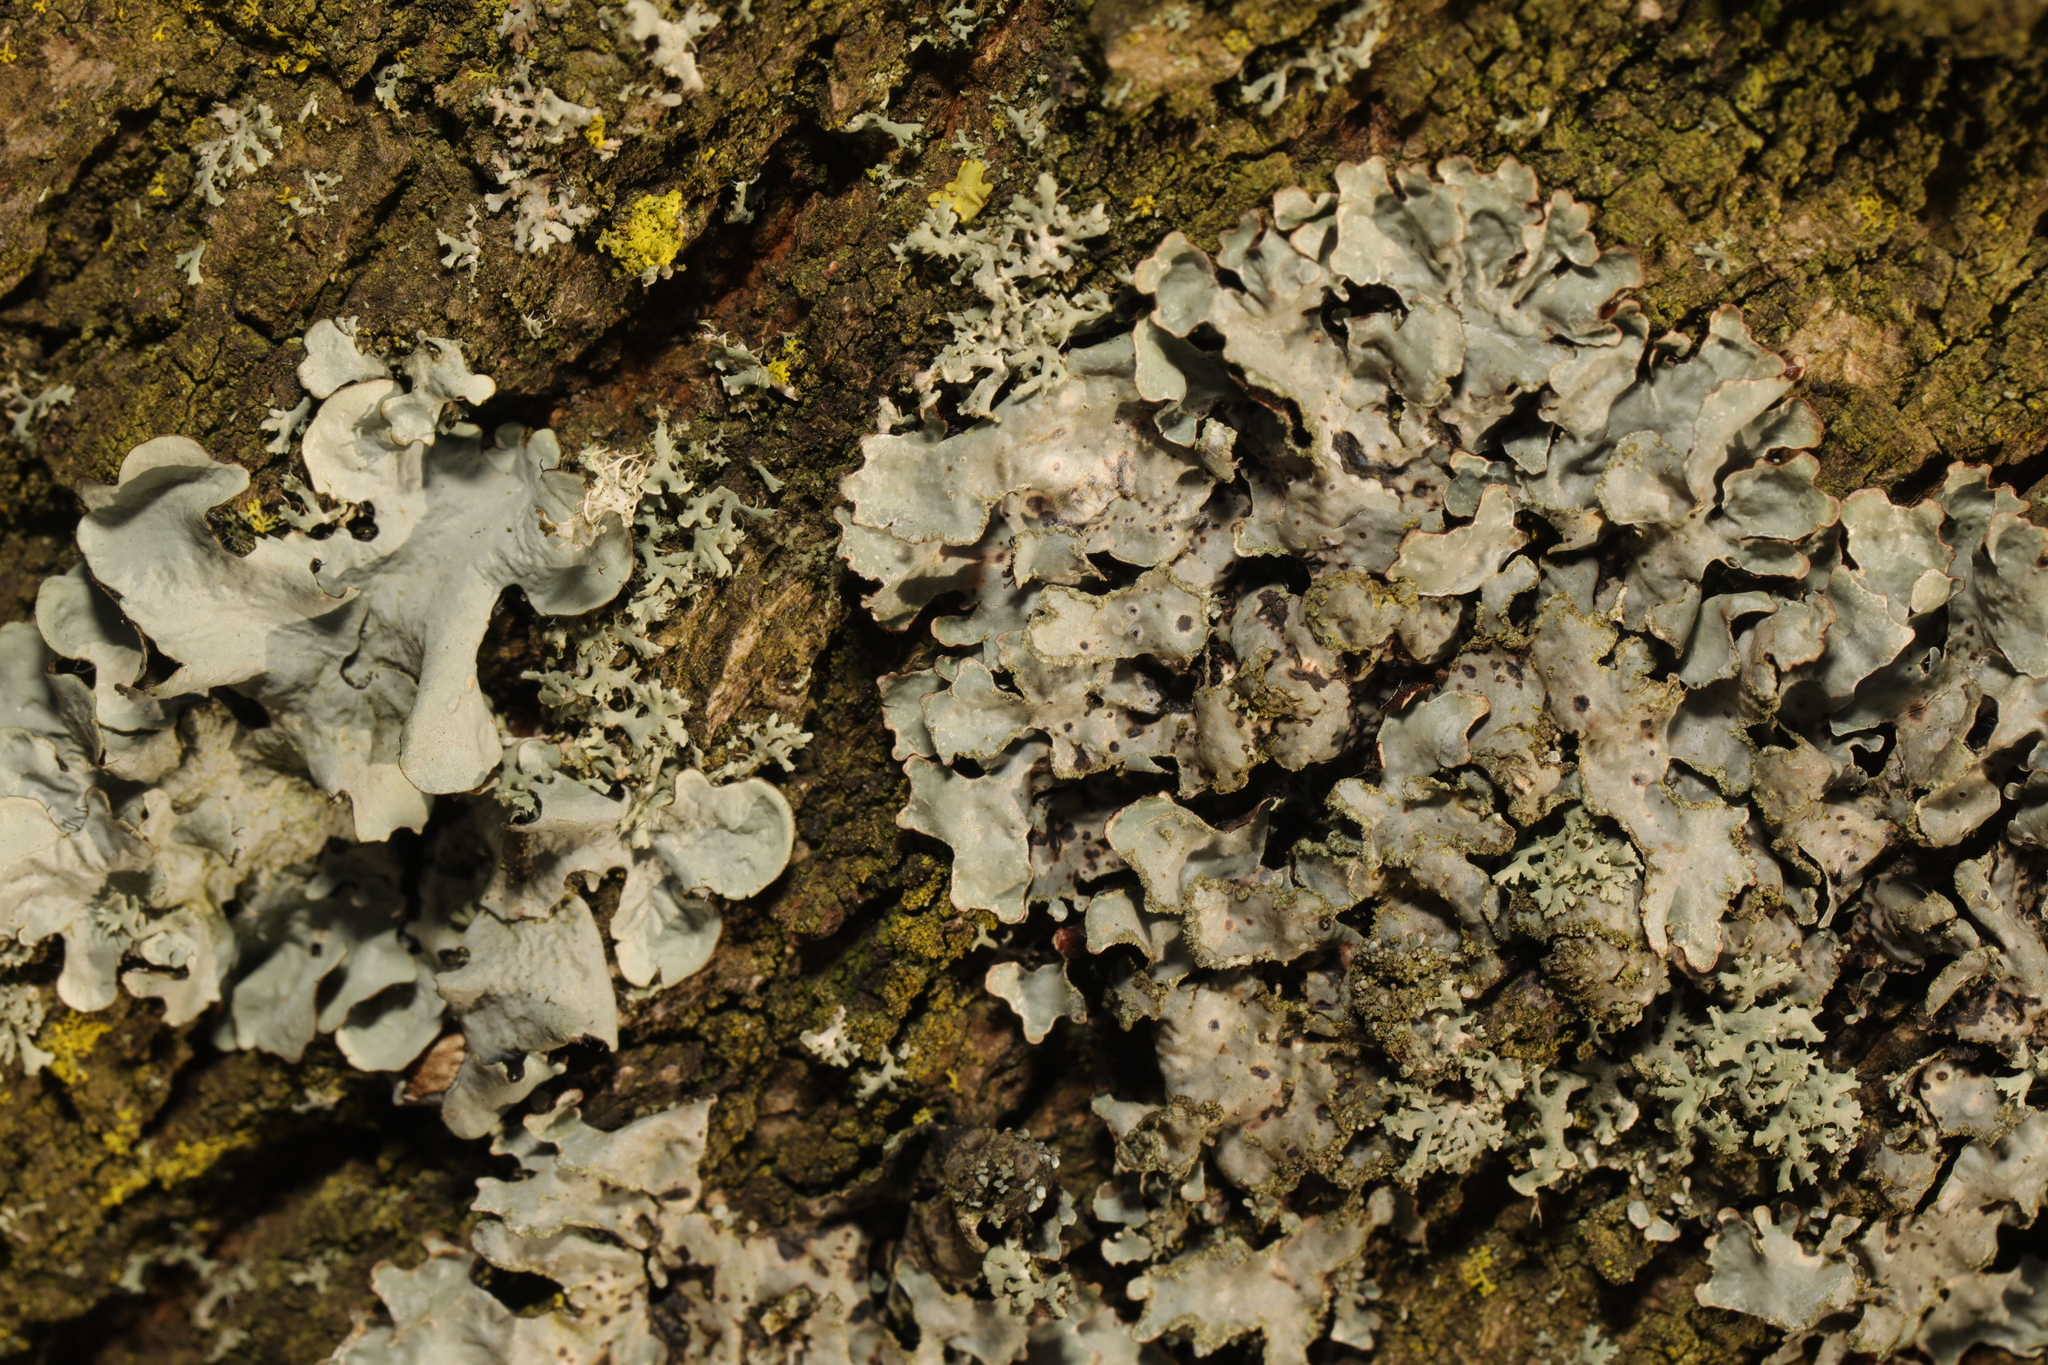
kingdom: Fungi
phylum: Ascomycota
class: Lecanoromycetes
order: Lecanorales
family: Parmeliaceae
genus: Parmelia
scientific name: Parmelia sulcata
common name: Netted shield lichen
